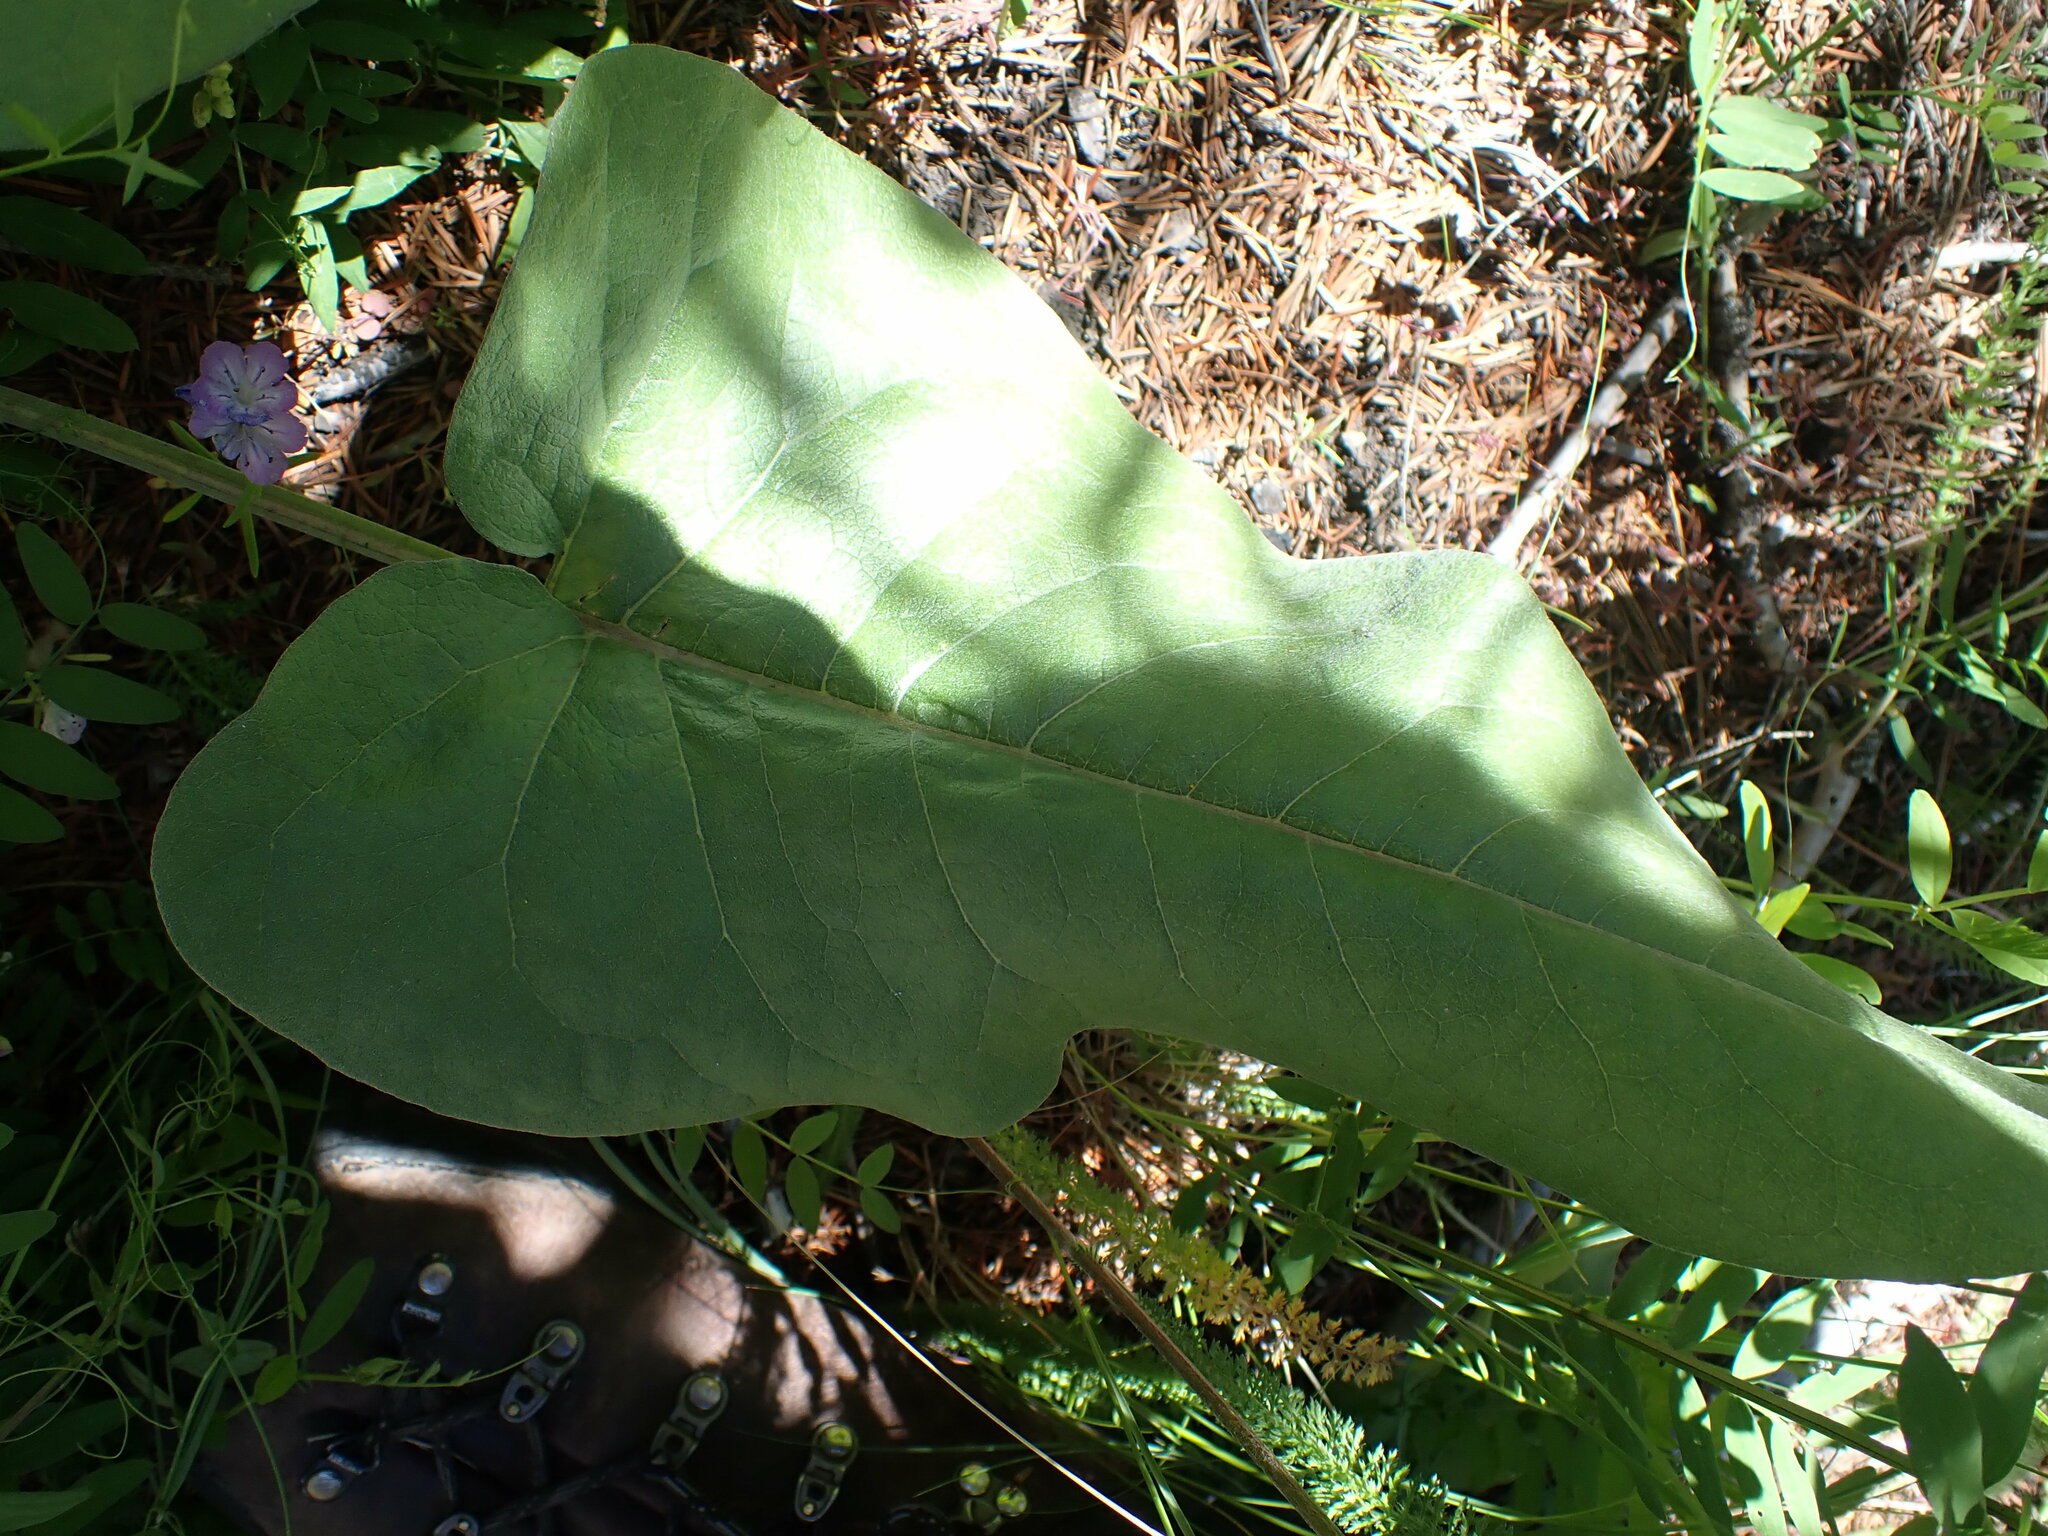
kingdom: Plantae
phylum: Tracheophyta
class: Magnoliopsida
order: Asterales
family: Asteraceae
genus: Wyethia
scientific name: Wyethia sagittata
